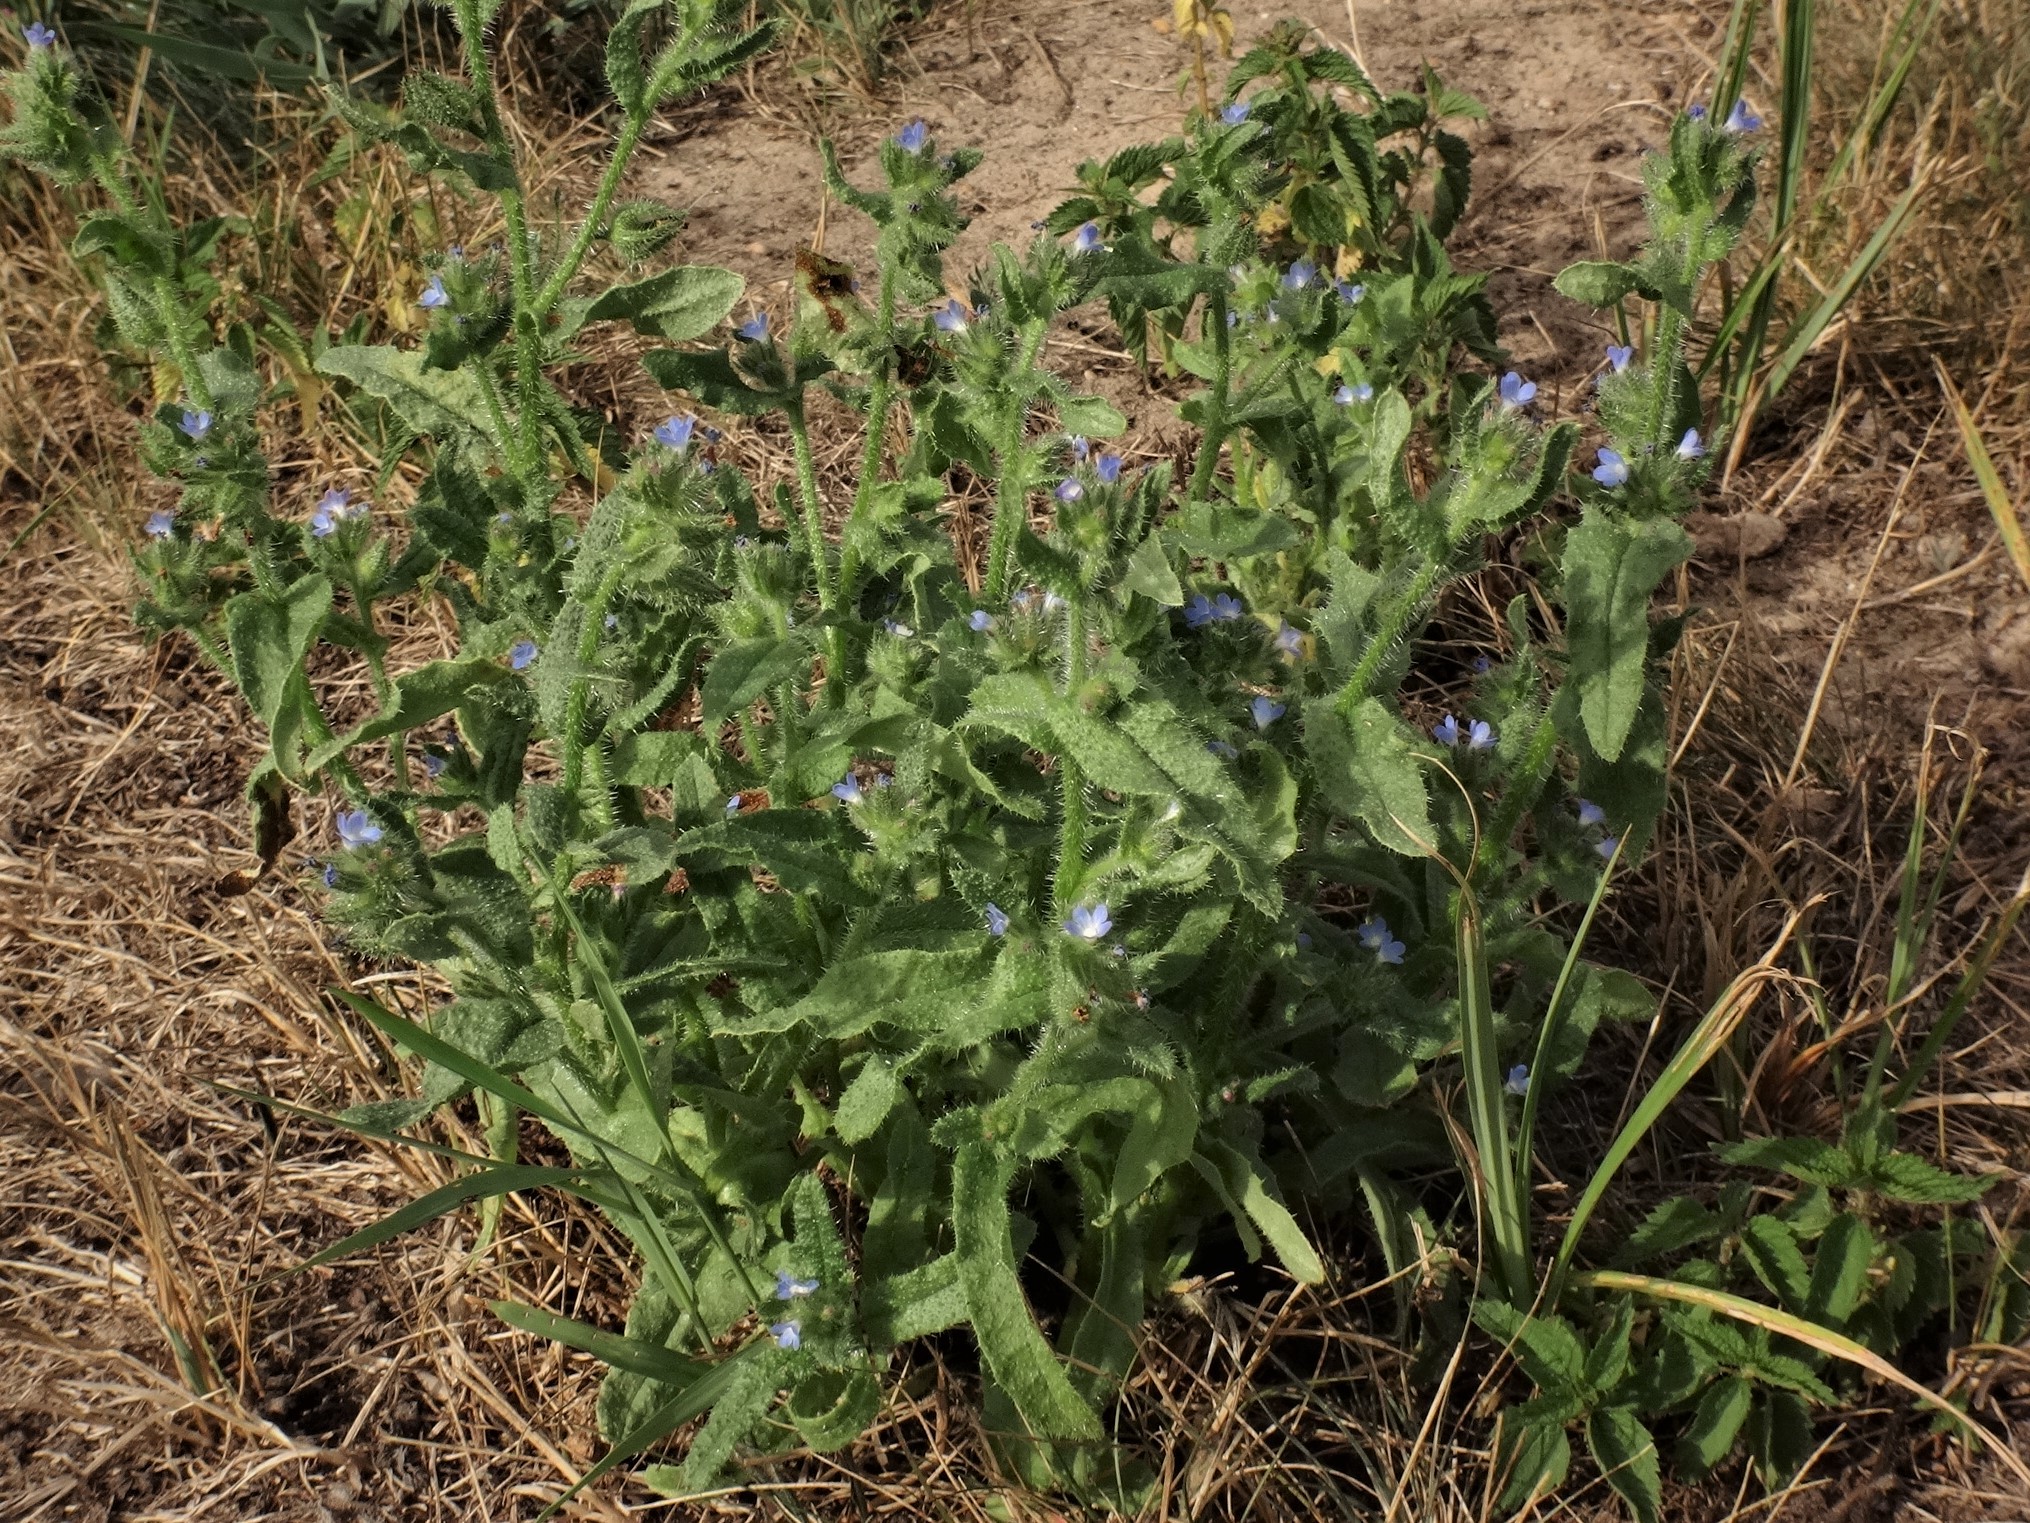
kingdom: Plantae
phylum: Tracheophyta
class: Magnoliopsida
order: Boraginales
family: Boraginaceae
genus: Lycopsis
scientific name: Lycopsis arvensis
